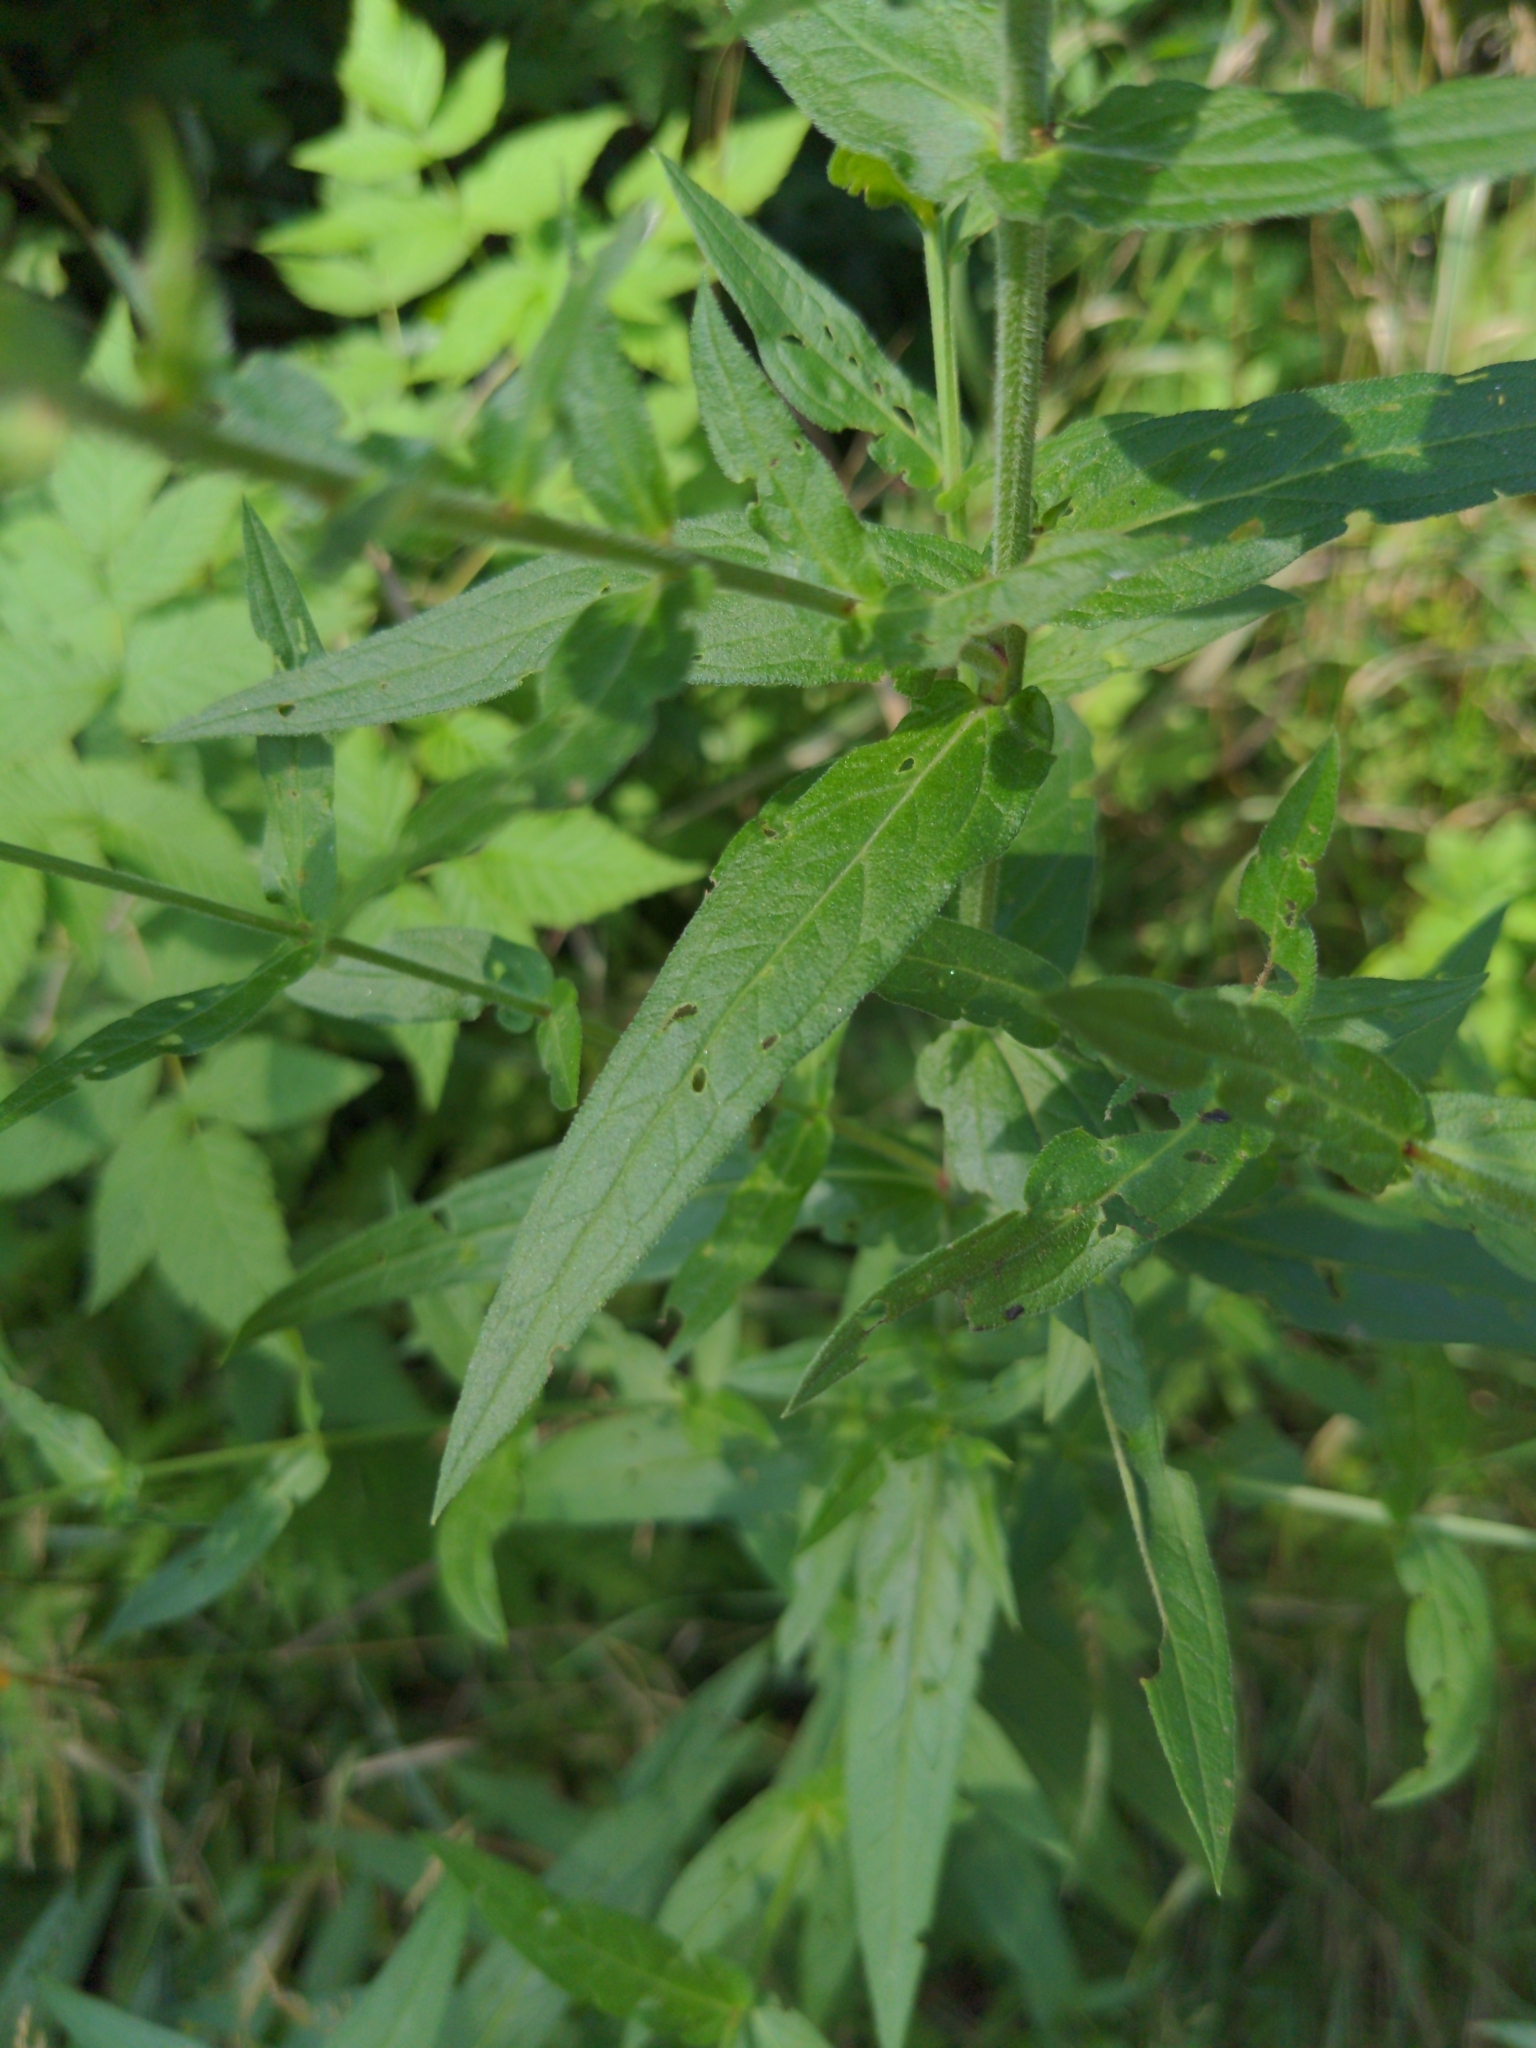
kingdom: Plantae
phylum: Tracheophyta
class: Magnoliopsida
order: Myrtales
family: Lythraceae
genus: Lythrum
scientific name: Lythrum salicaria
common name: Purple loosestrife
